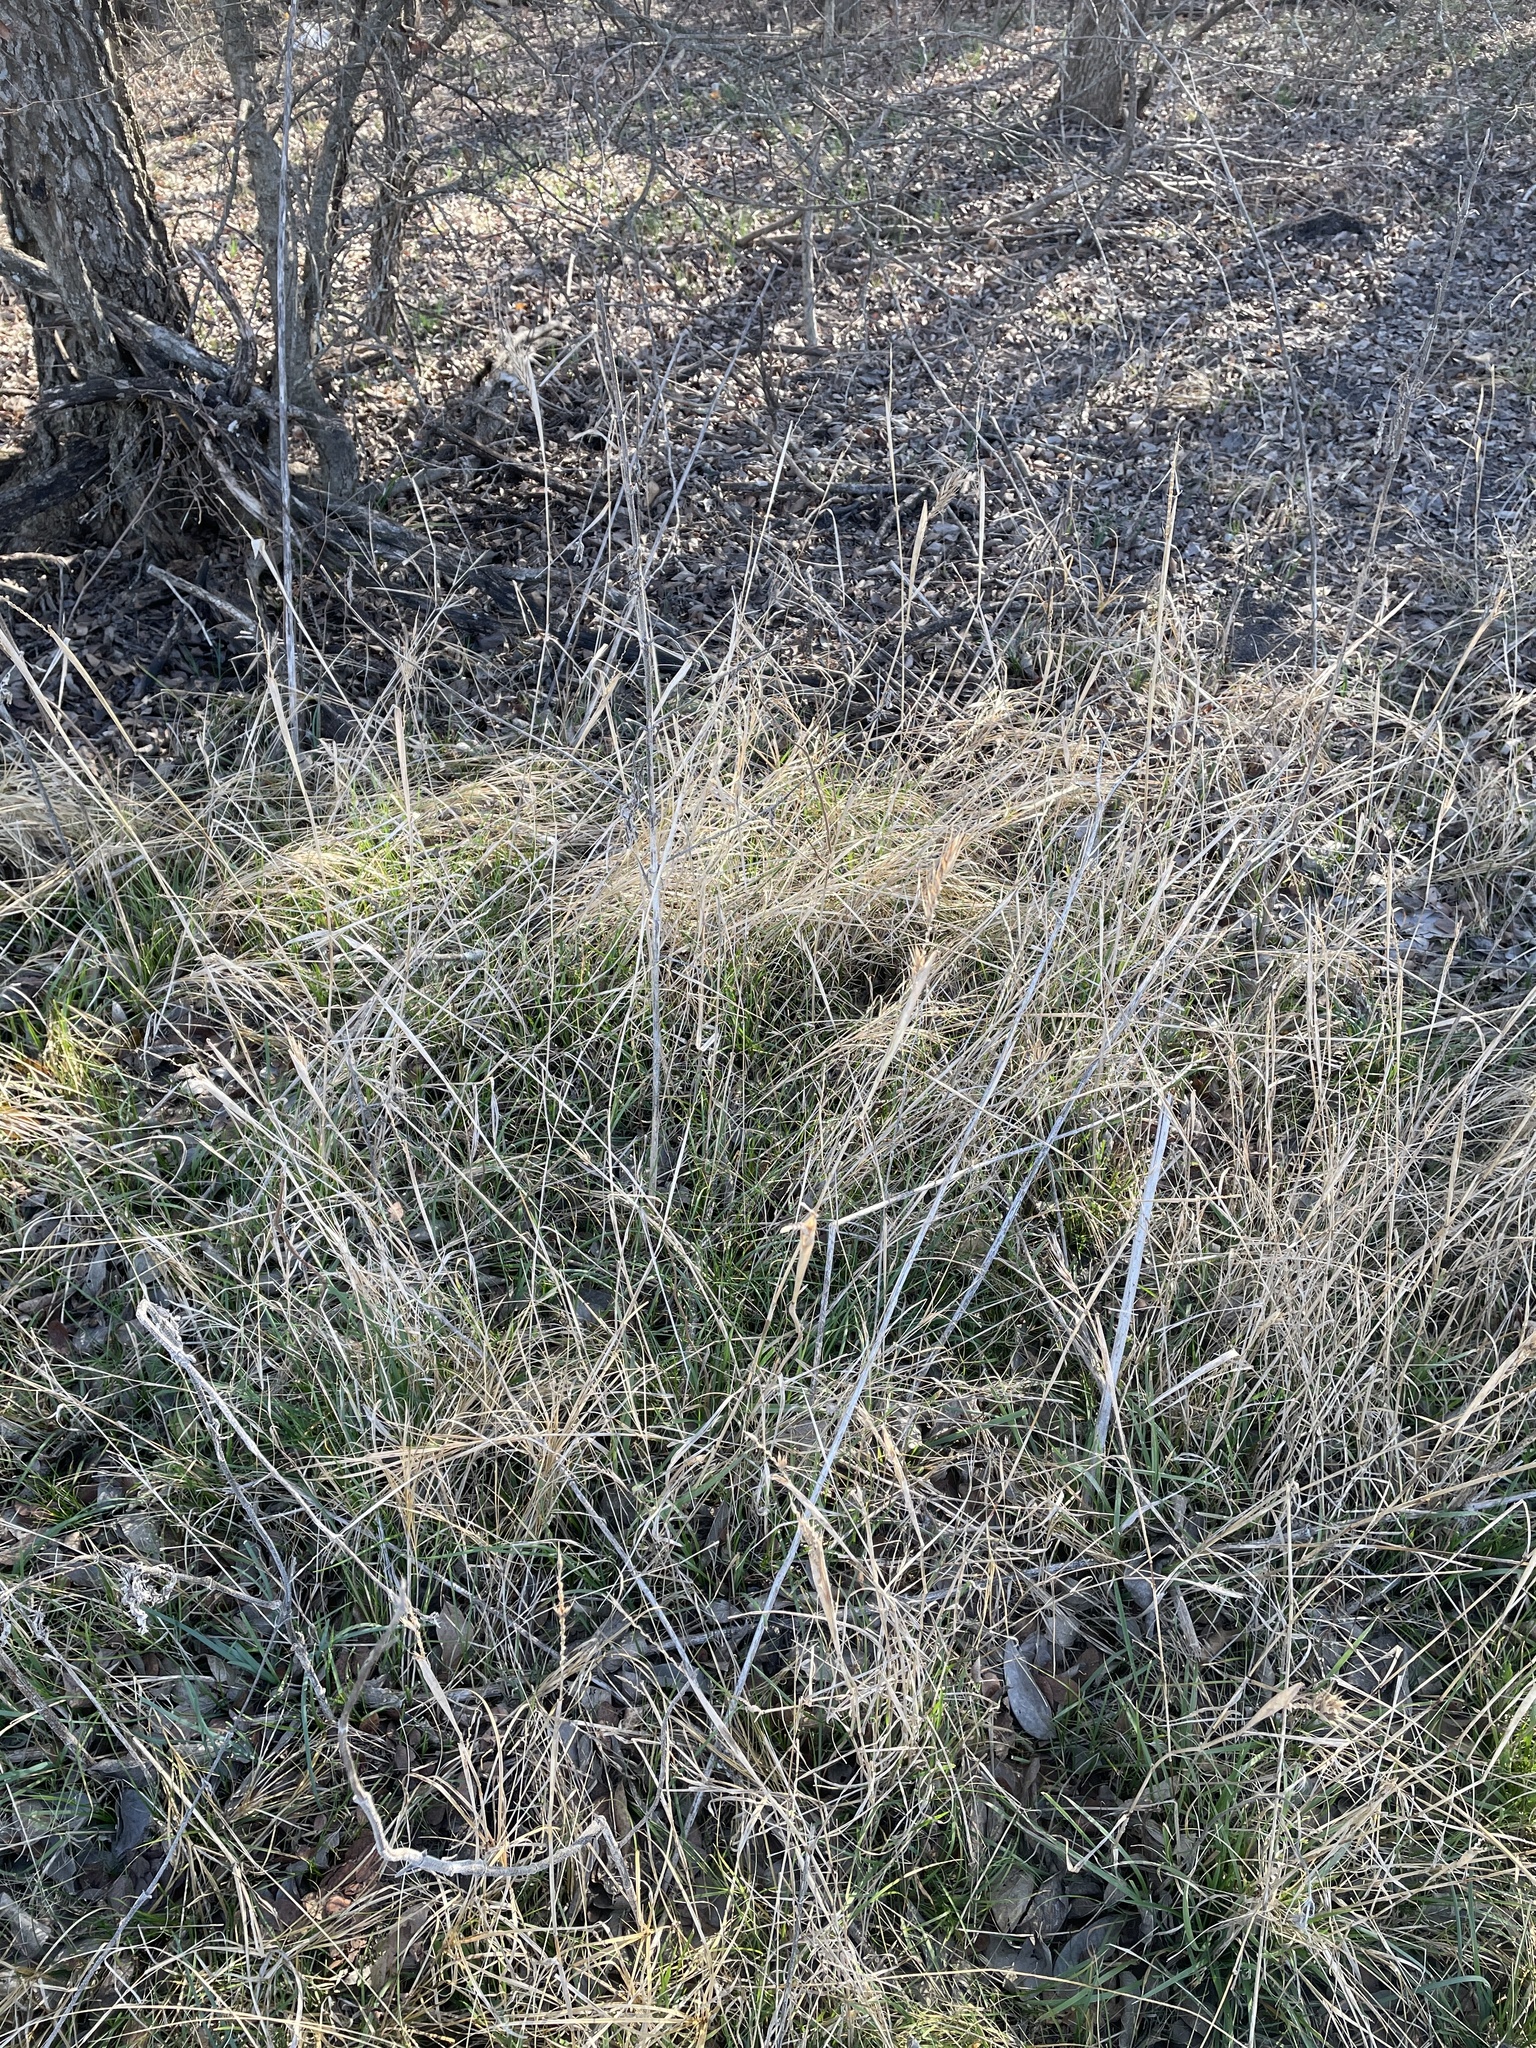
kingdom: Plantae
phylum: Tracheophyta
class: Liliopsida
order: Poales
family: Poaceae
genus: Elymus
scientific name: Elymus virginicus
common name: Common eastern wildrye
